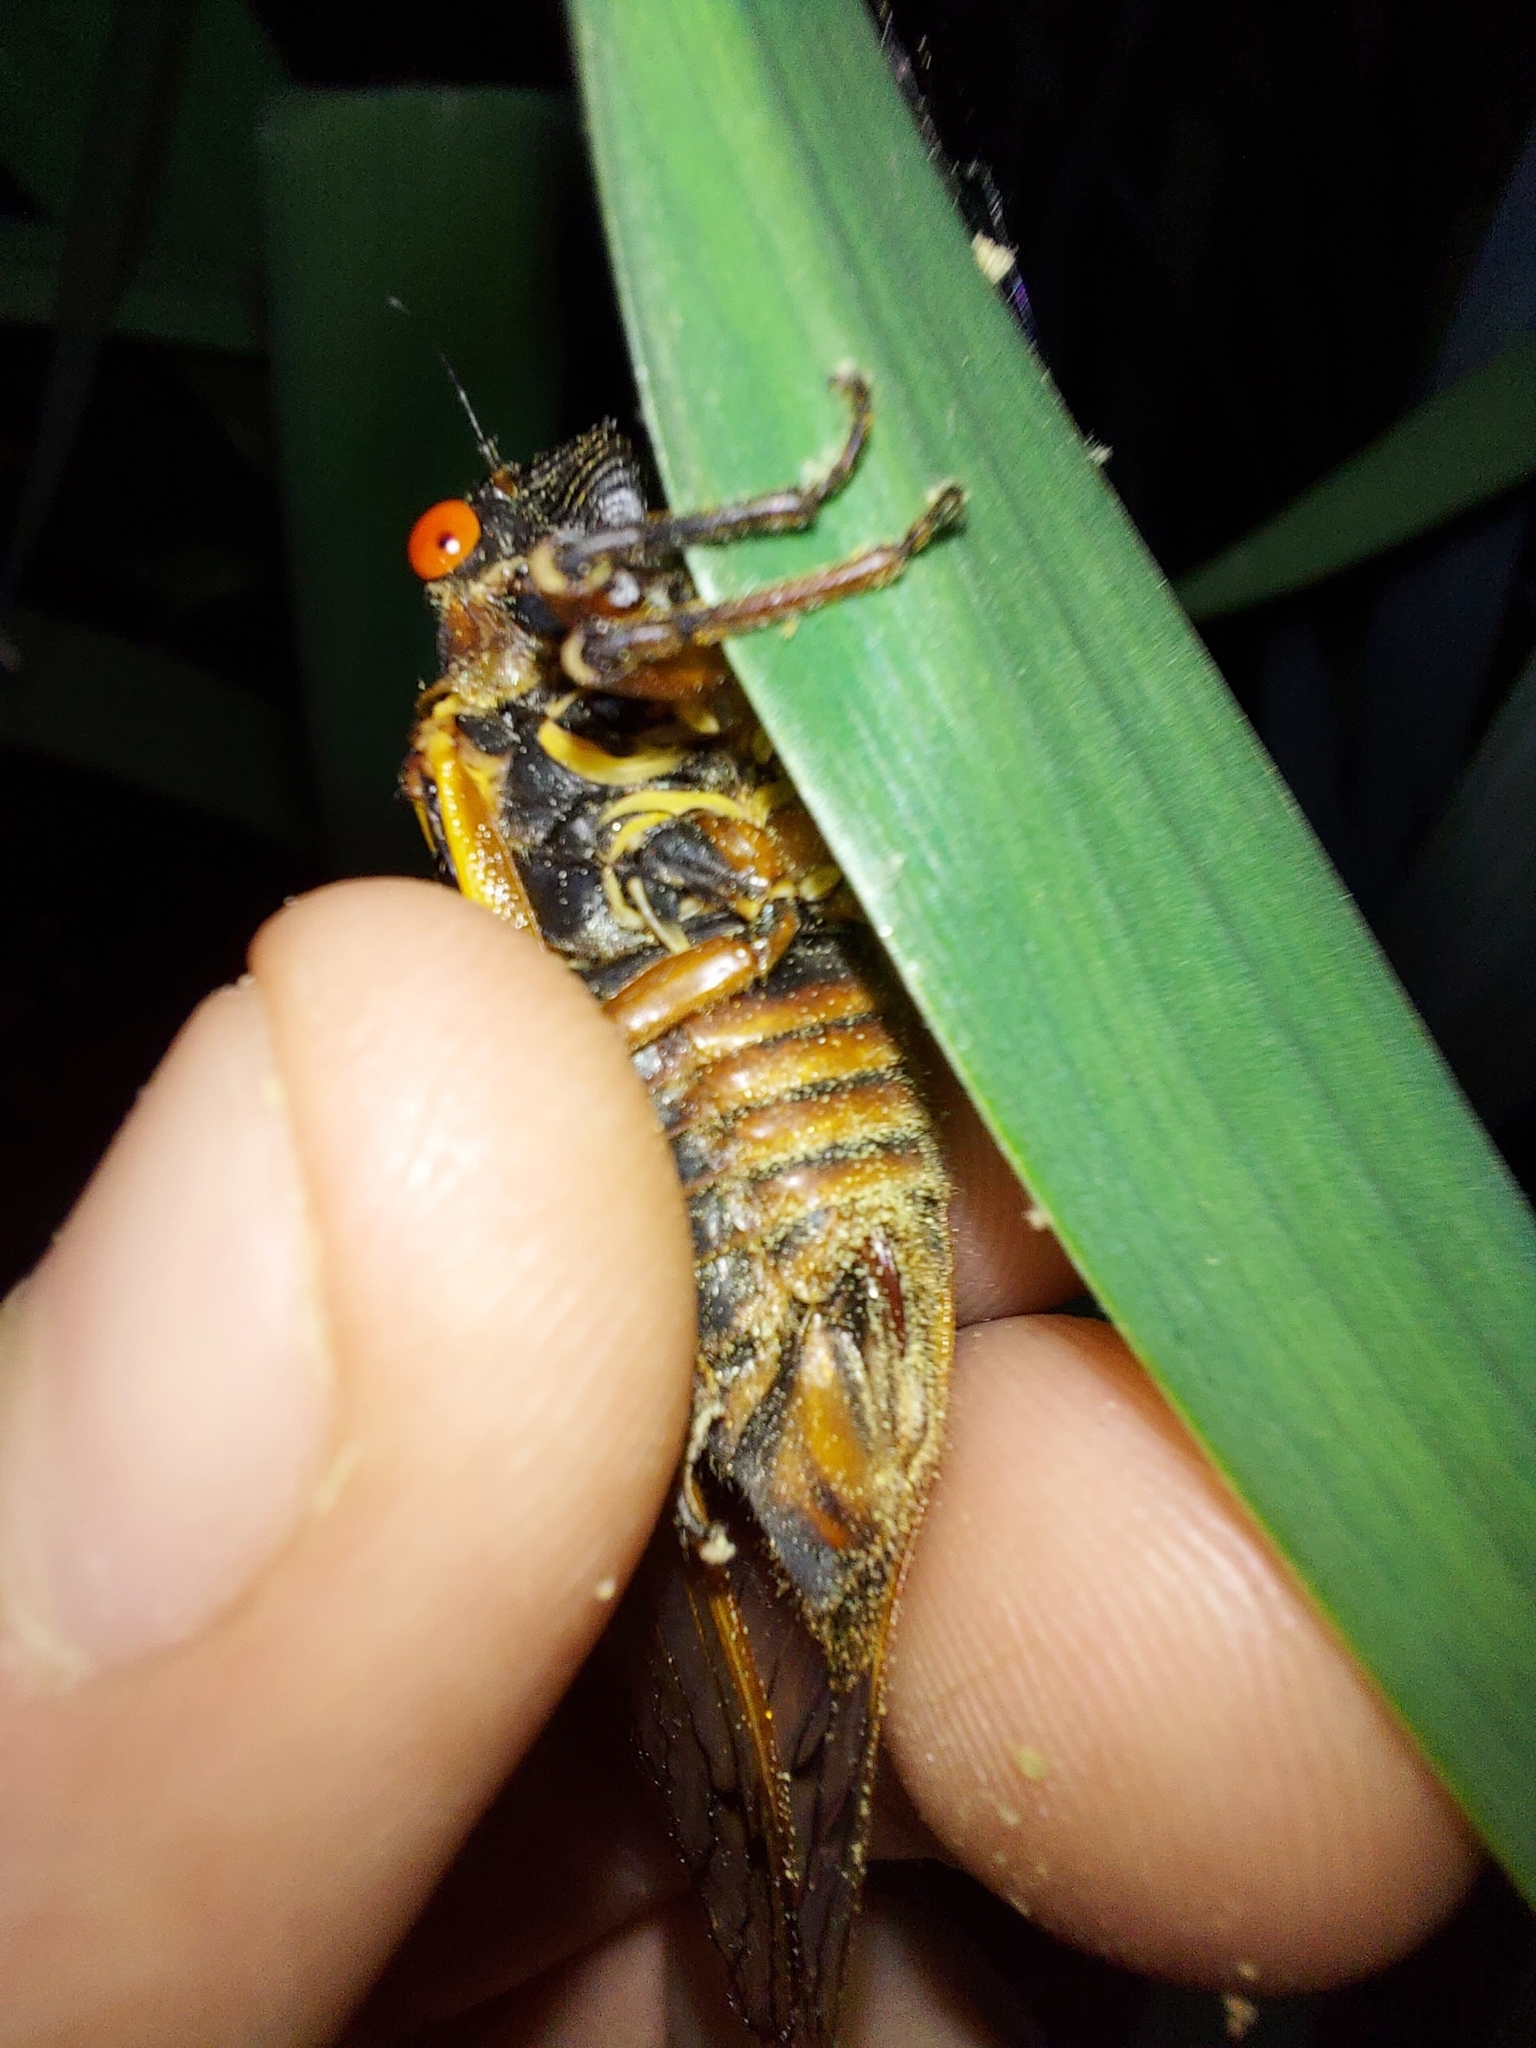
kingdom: Animalia
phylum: Arthropoda
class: Insecta
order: Hemiptera
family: Cicadidae
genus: Magicicada
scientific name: Magicicada septendecim
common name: Periodical cicada
